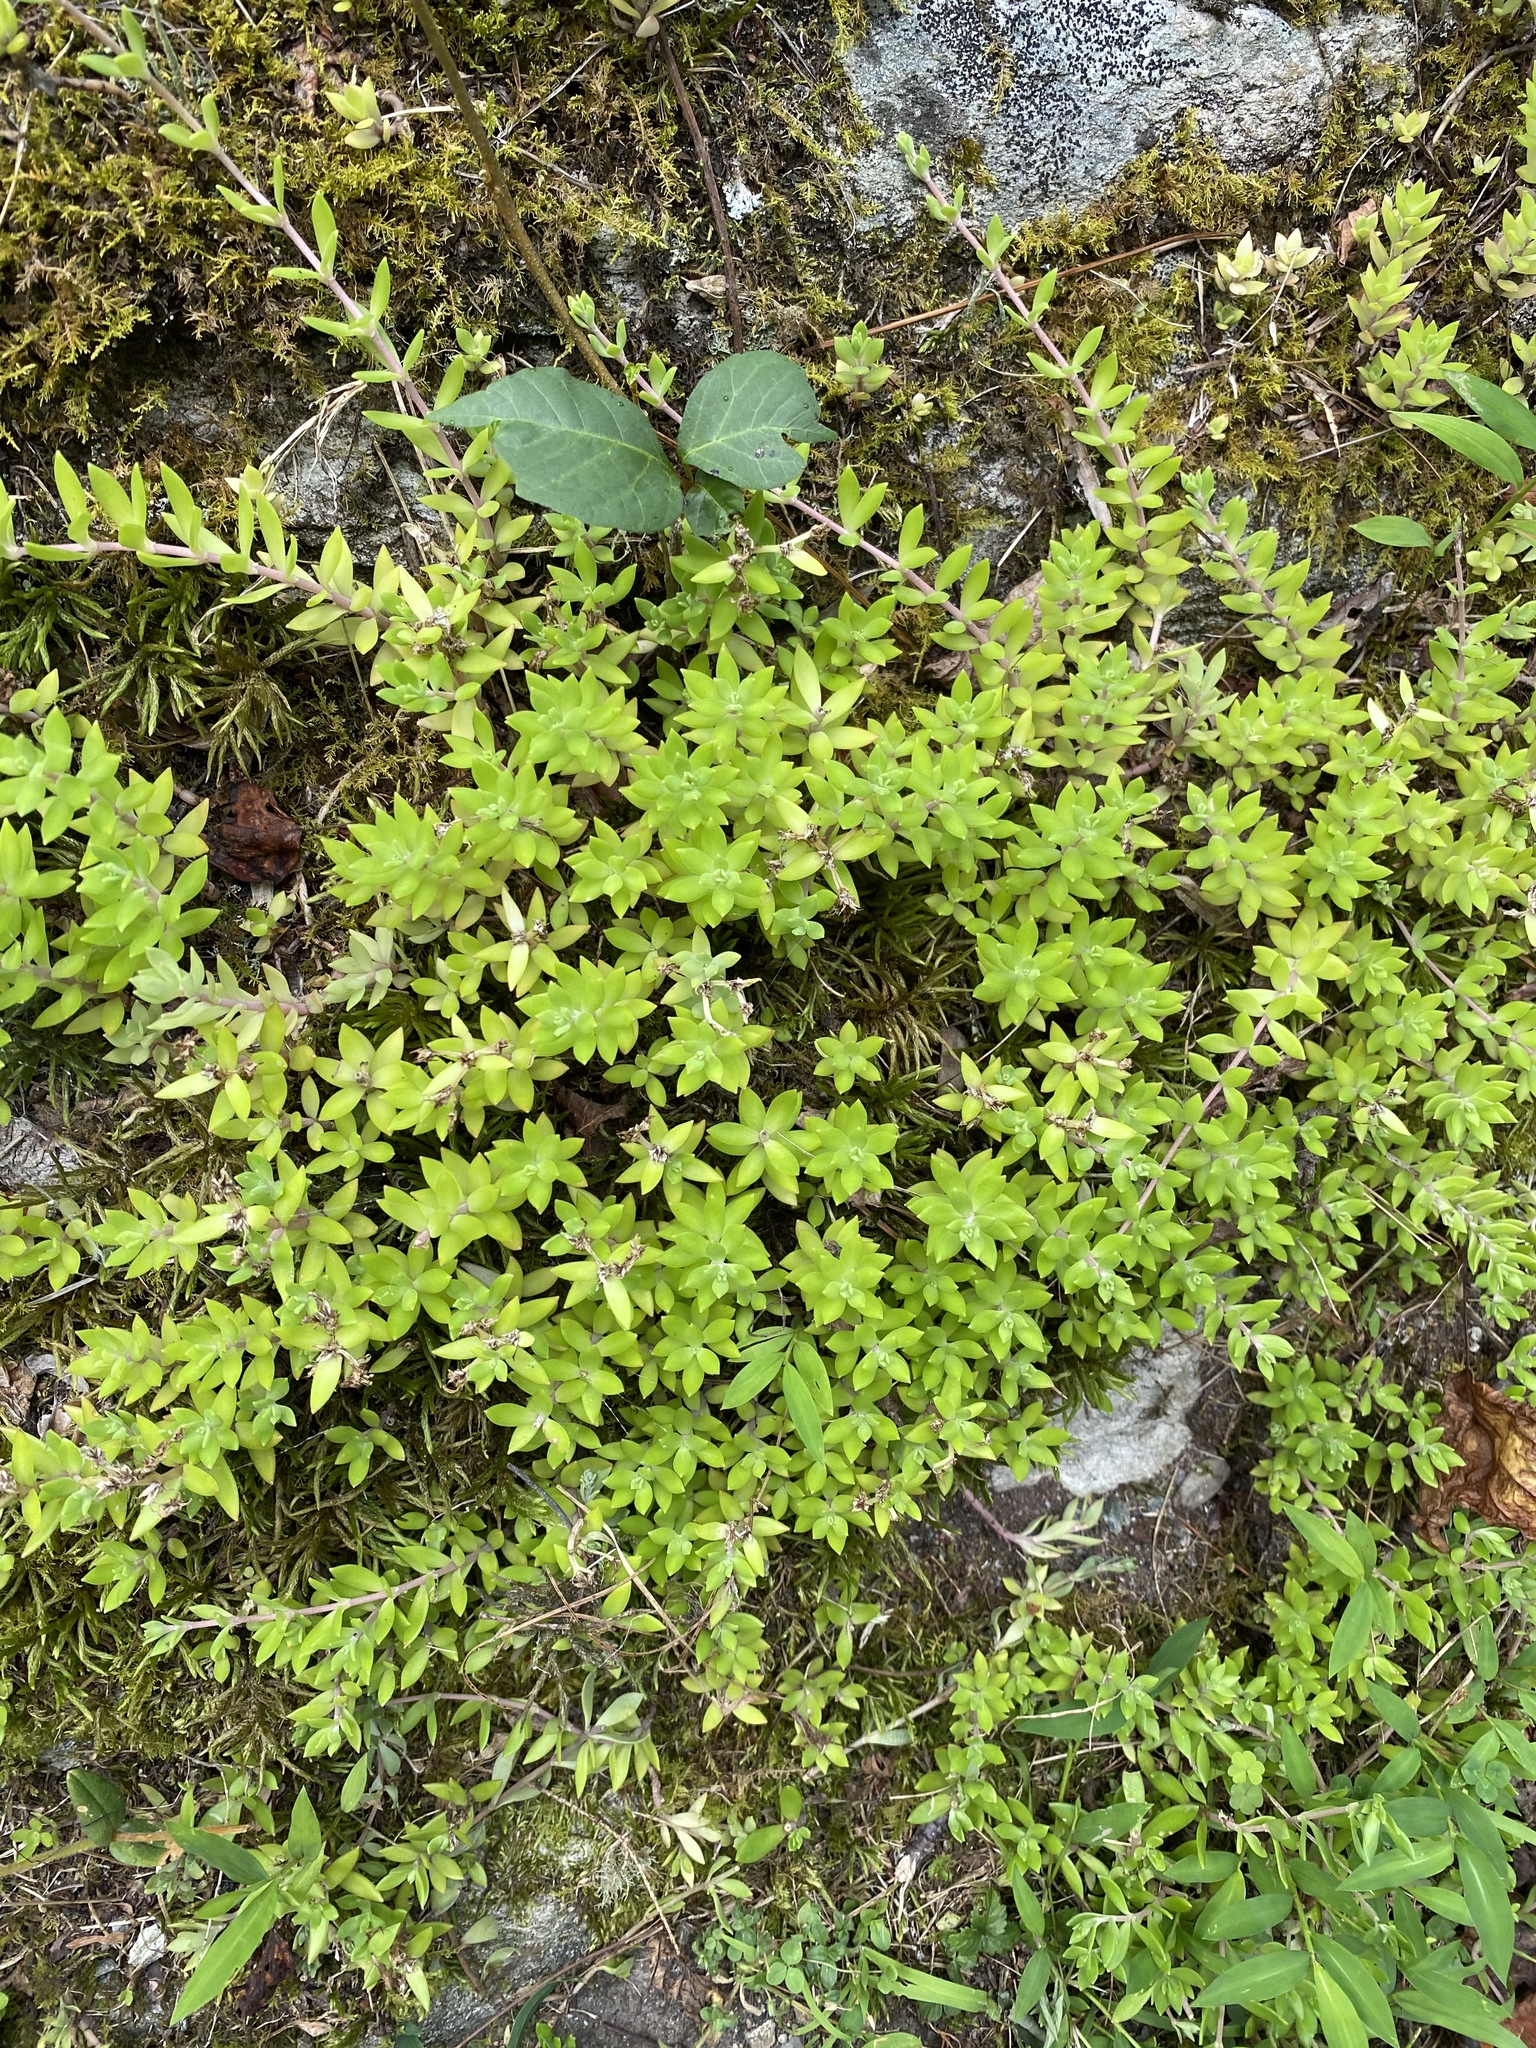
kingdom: Plantae
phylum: Tracheophyta
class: Magnoliopsida
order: Saxifragales
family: Crassulaceae
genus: Sedum
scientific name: Sedum sarmentosum
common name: Stringy stonecrop
